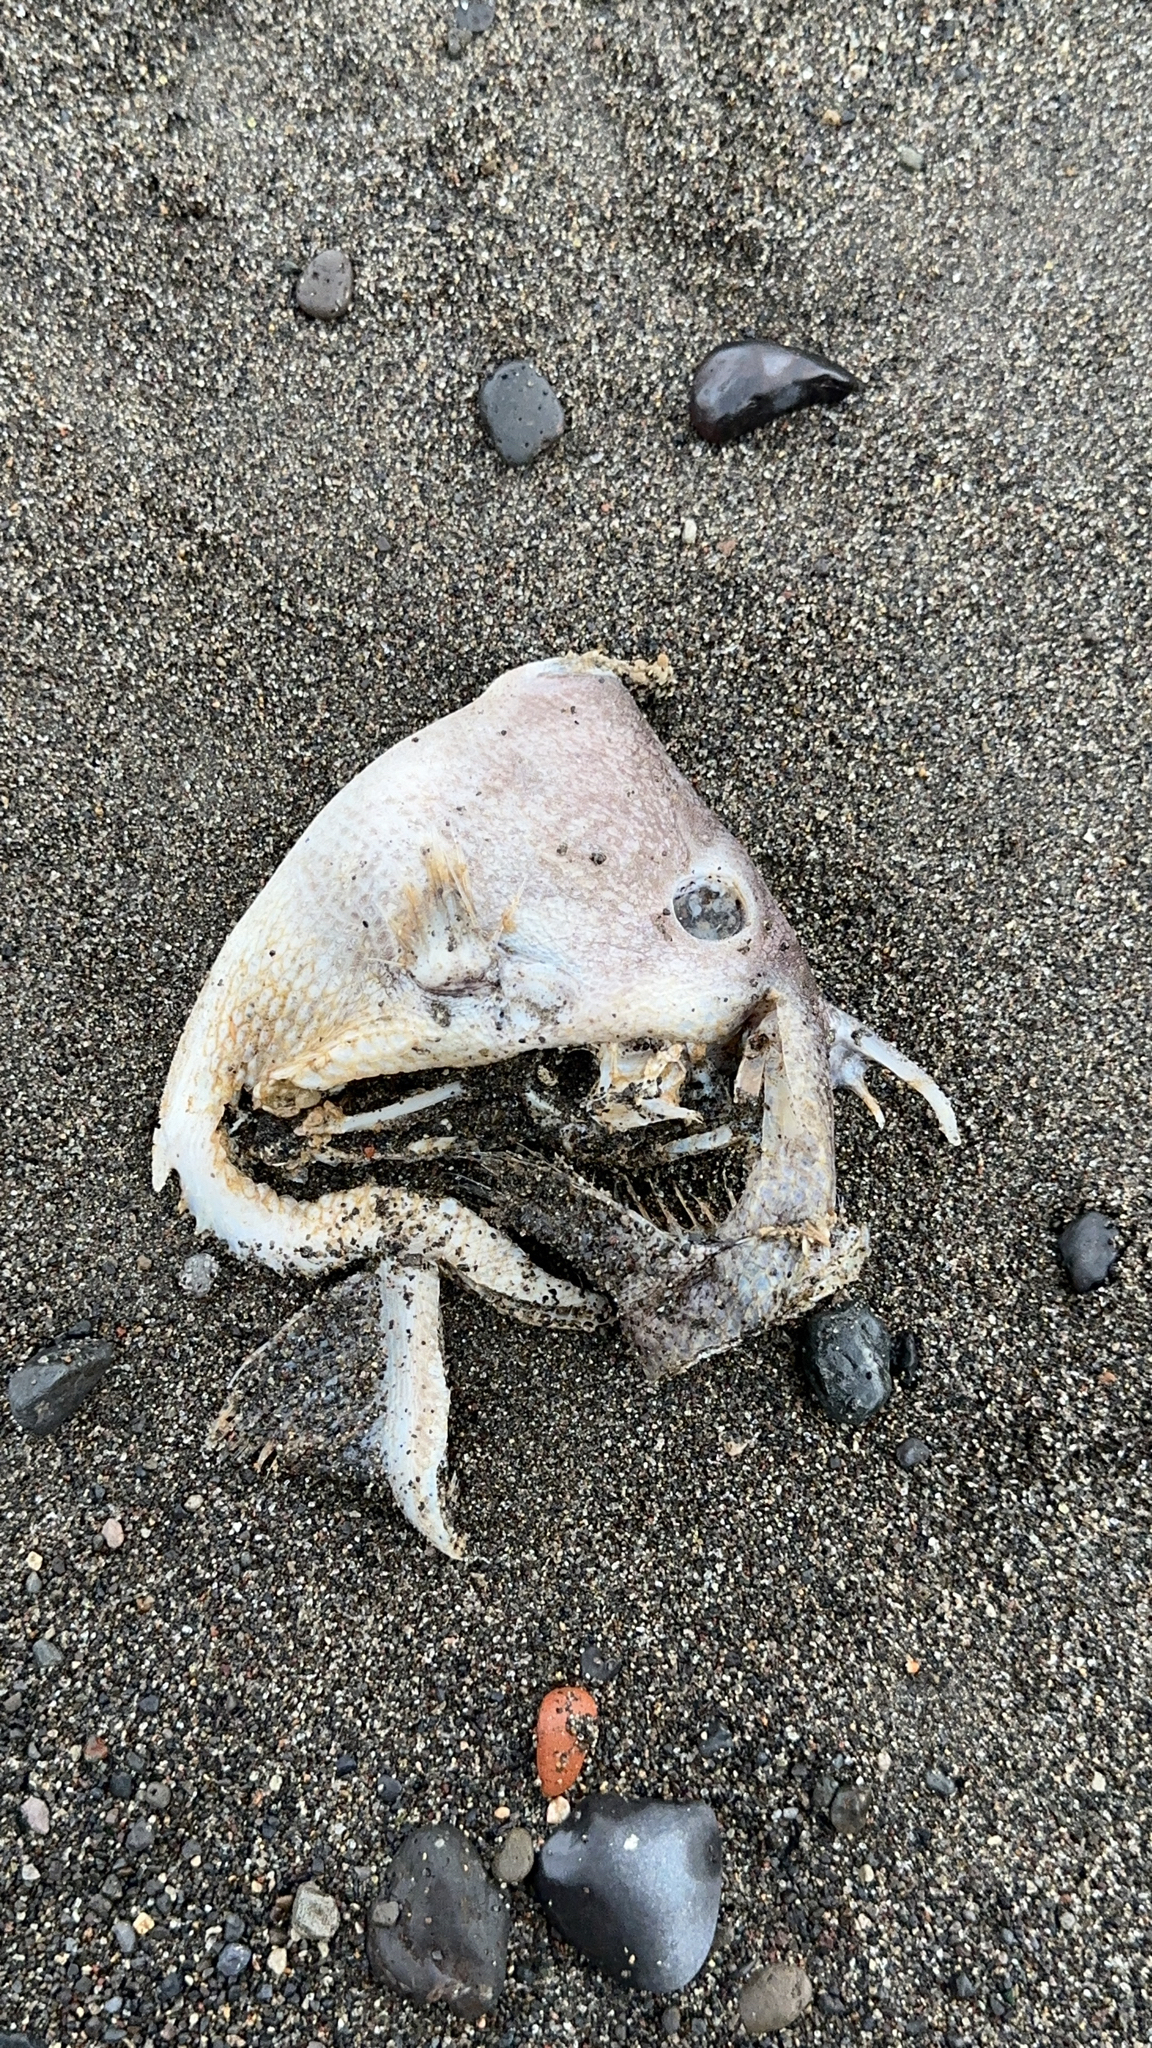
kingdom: Animalia
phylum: Chordata
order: Tetraodontiformes
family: Balistidae
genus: Balistes
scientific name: Balistes capriscus
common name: Grey triggerfish
